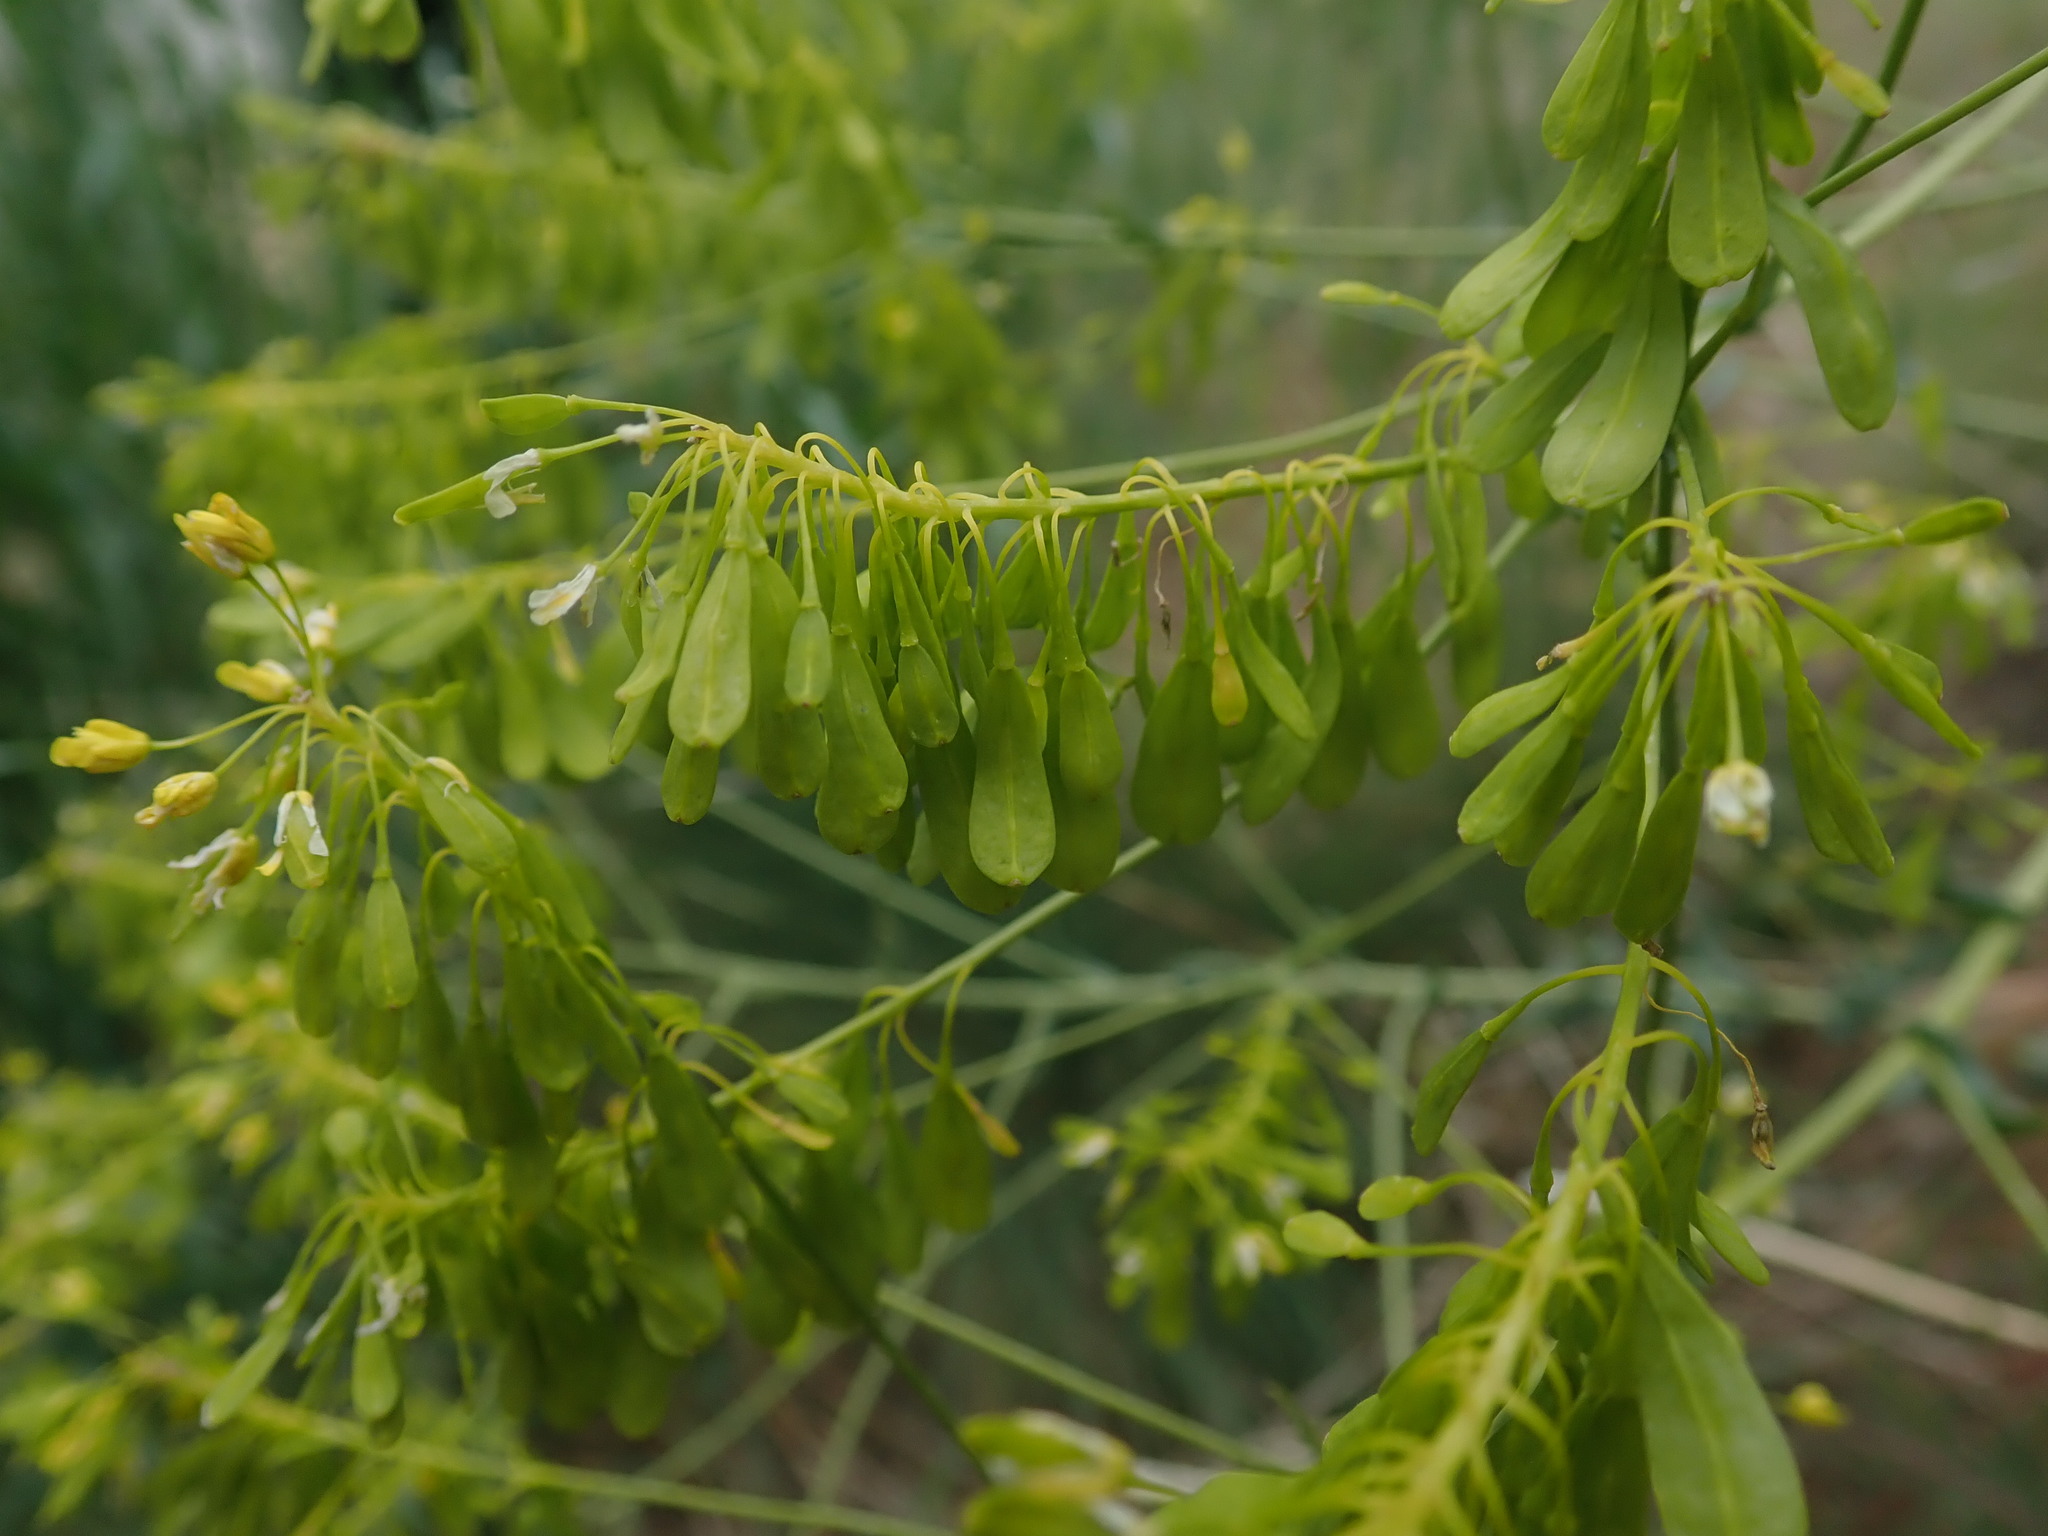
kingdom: Plantae
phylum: Tracheophyta
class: Magnoliopsida
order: Brassicales
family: Brassicaceae
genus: Isatis
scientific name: Isatis tinctoria
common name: Woad
